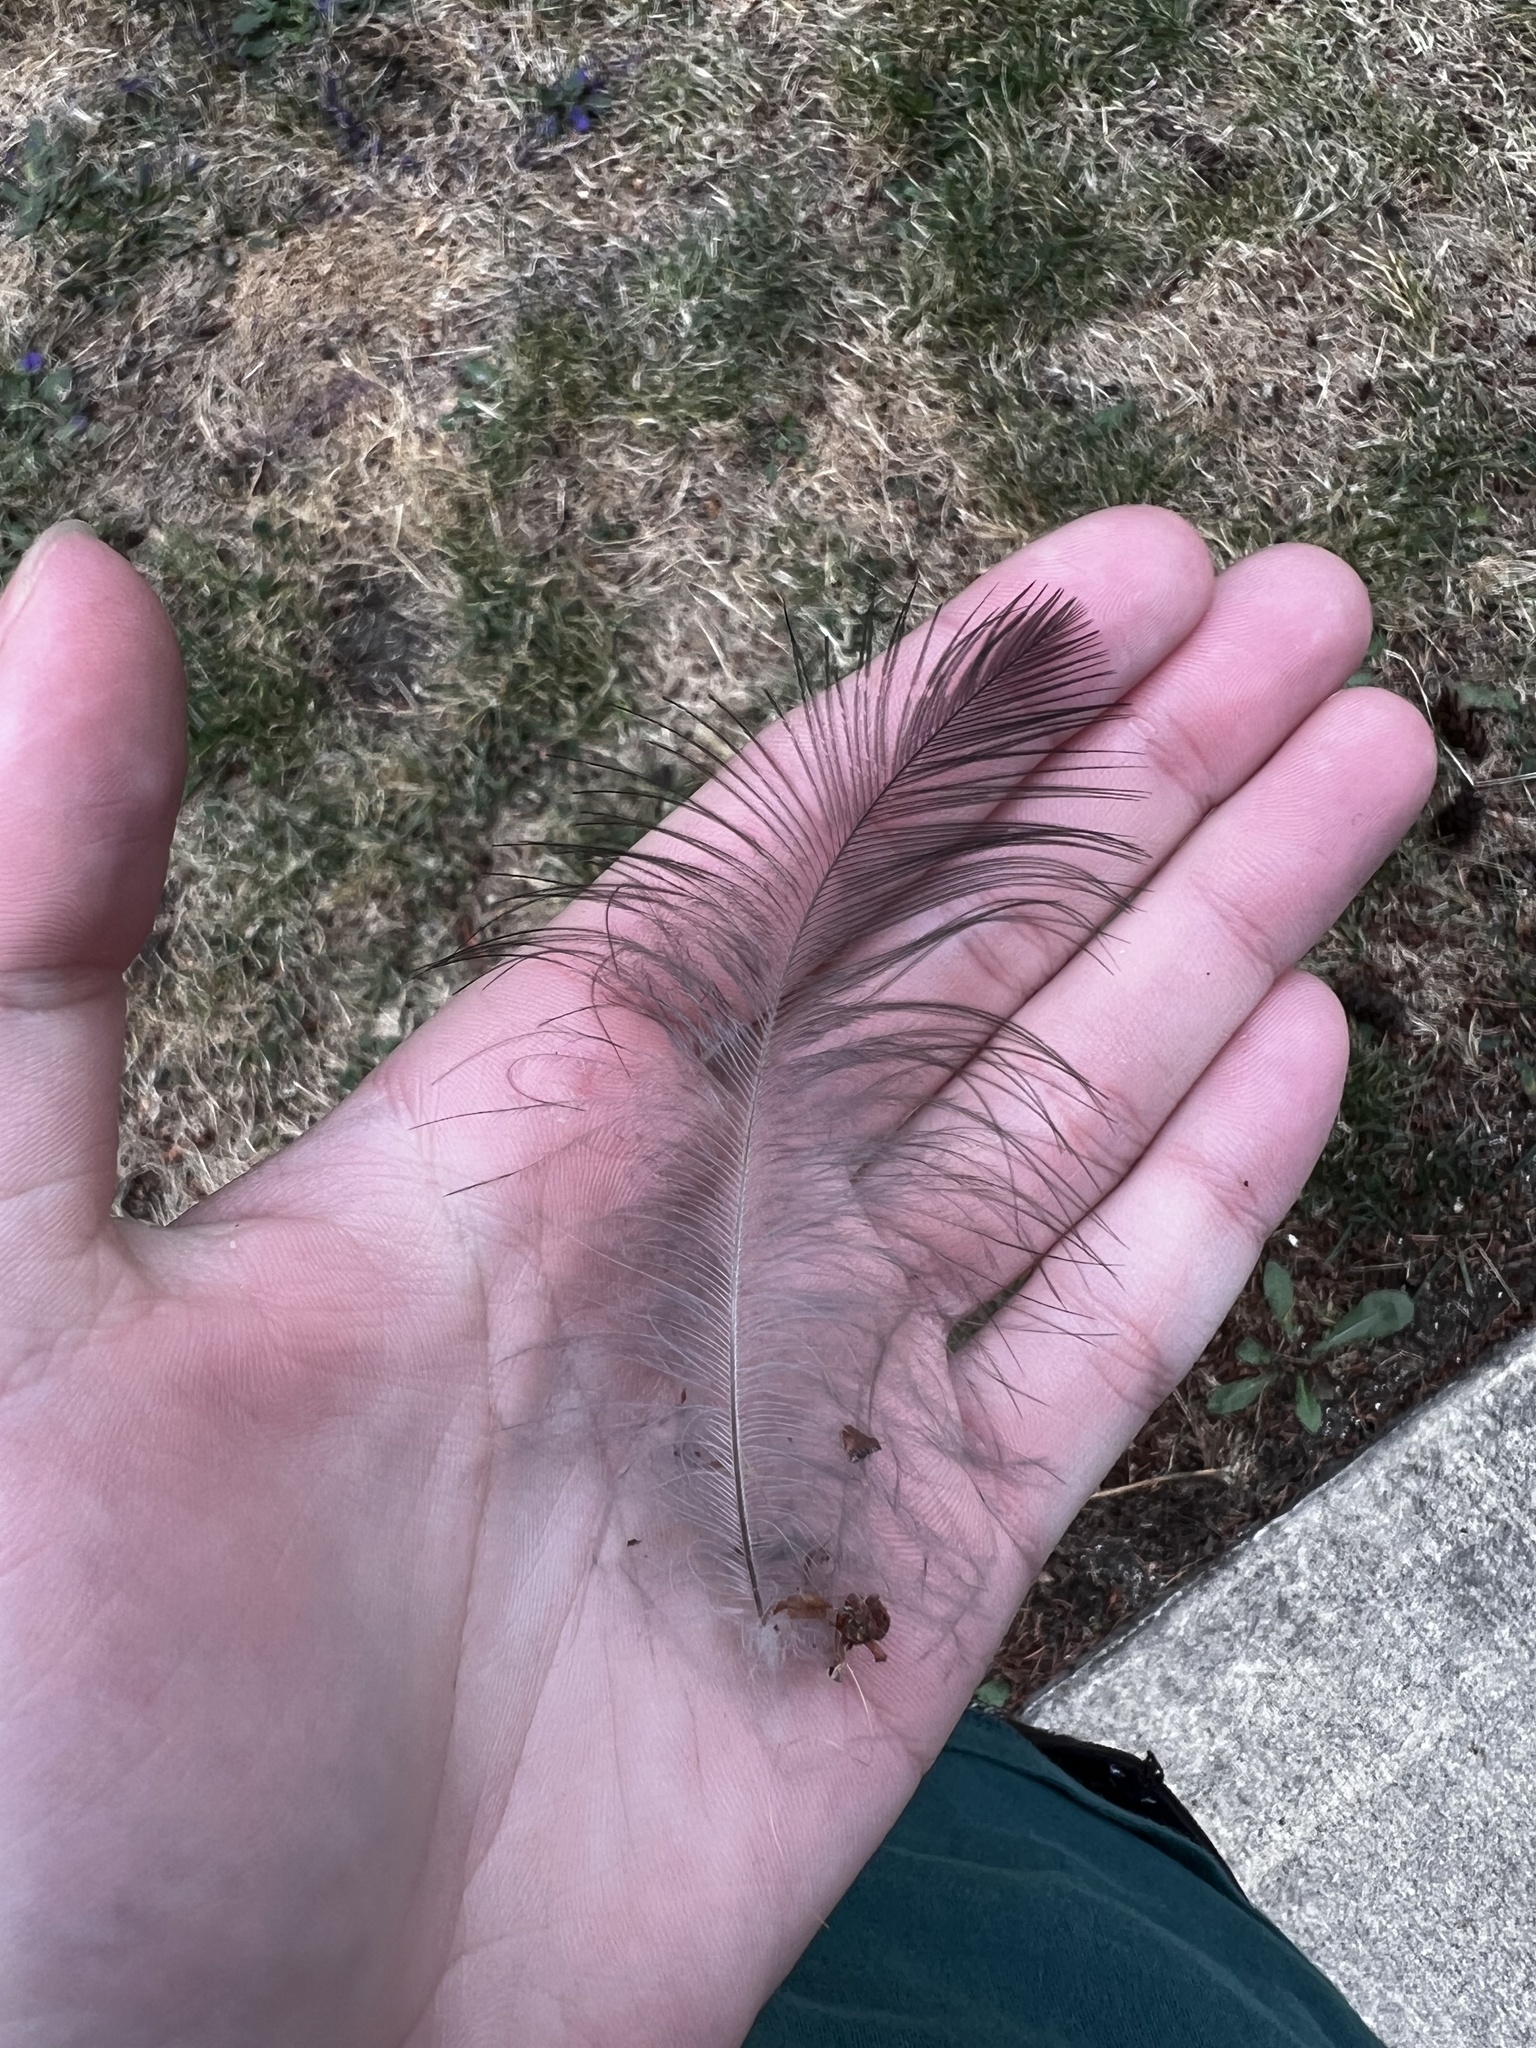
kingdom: Animalia
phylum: Chordata
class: Aves
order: Passeriformes
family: Corvidae
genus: Corvus
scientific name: Corvus corax
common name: Common raven
